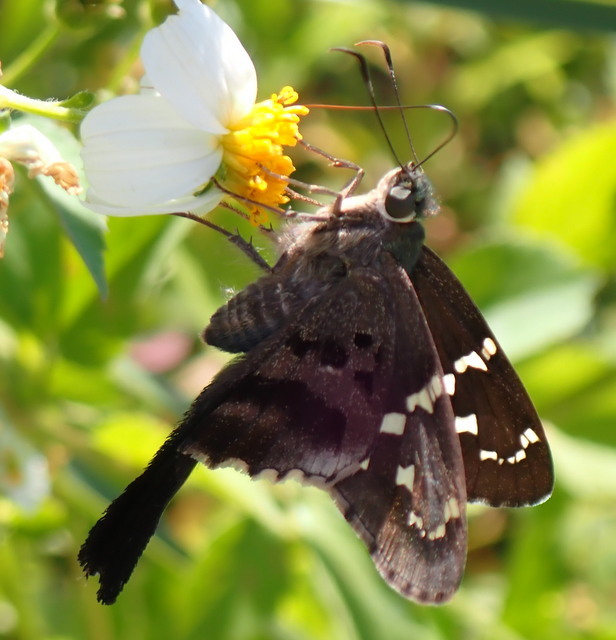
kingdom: Animalia
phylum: Arthropoda
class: Insecta
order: Lepidoptera
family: Hesperiidae
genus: Urbanus
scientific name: Urbanus proteus
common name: Long-tailed skipper
